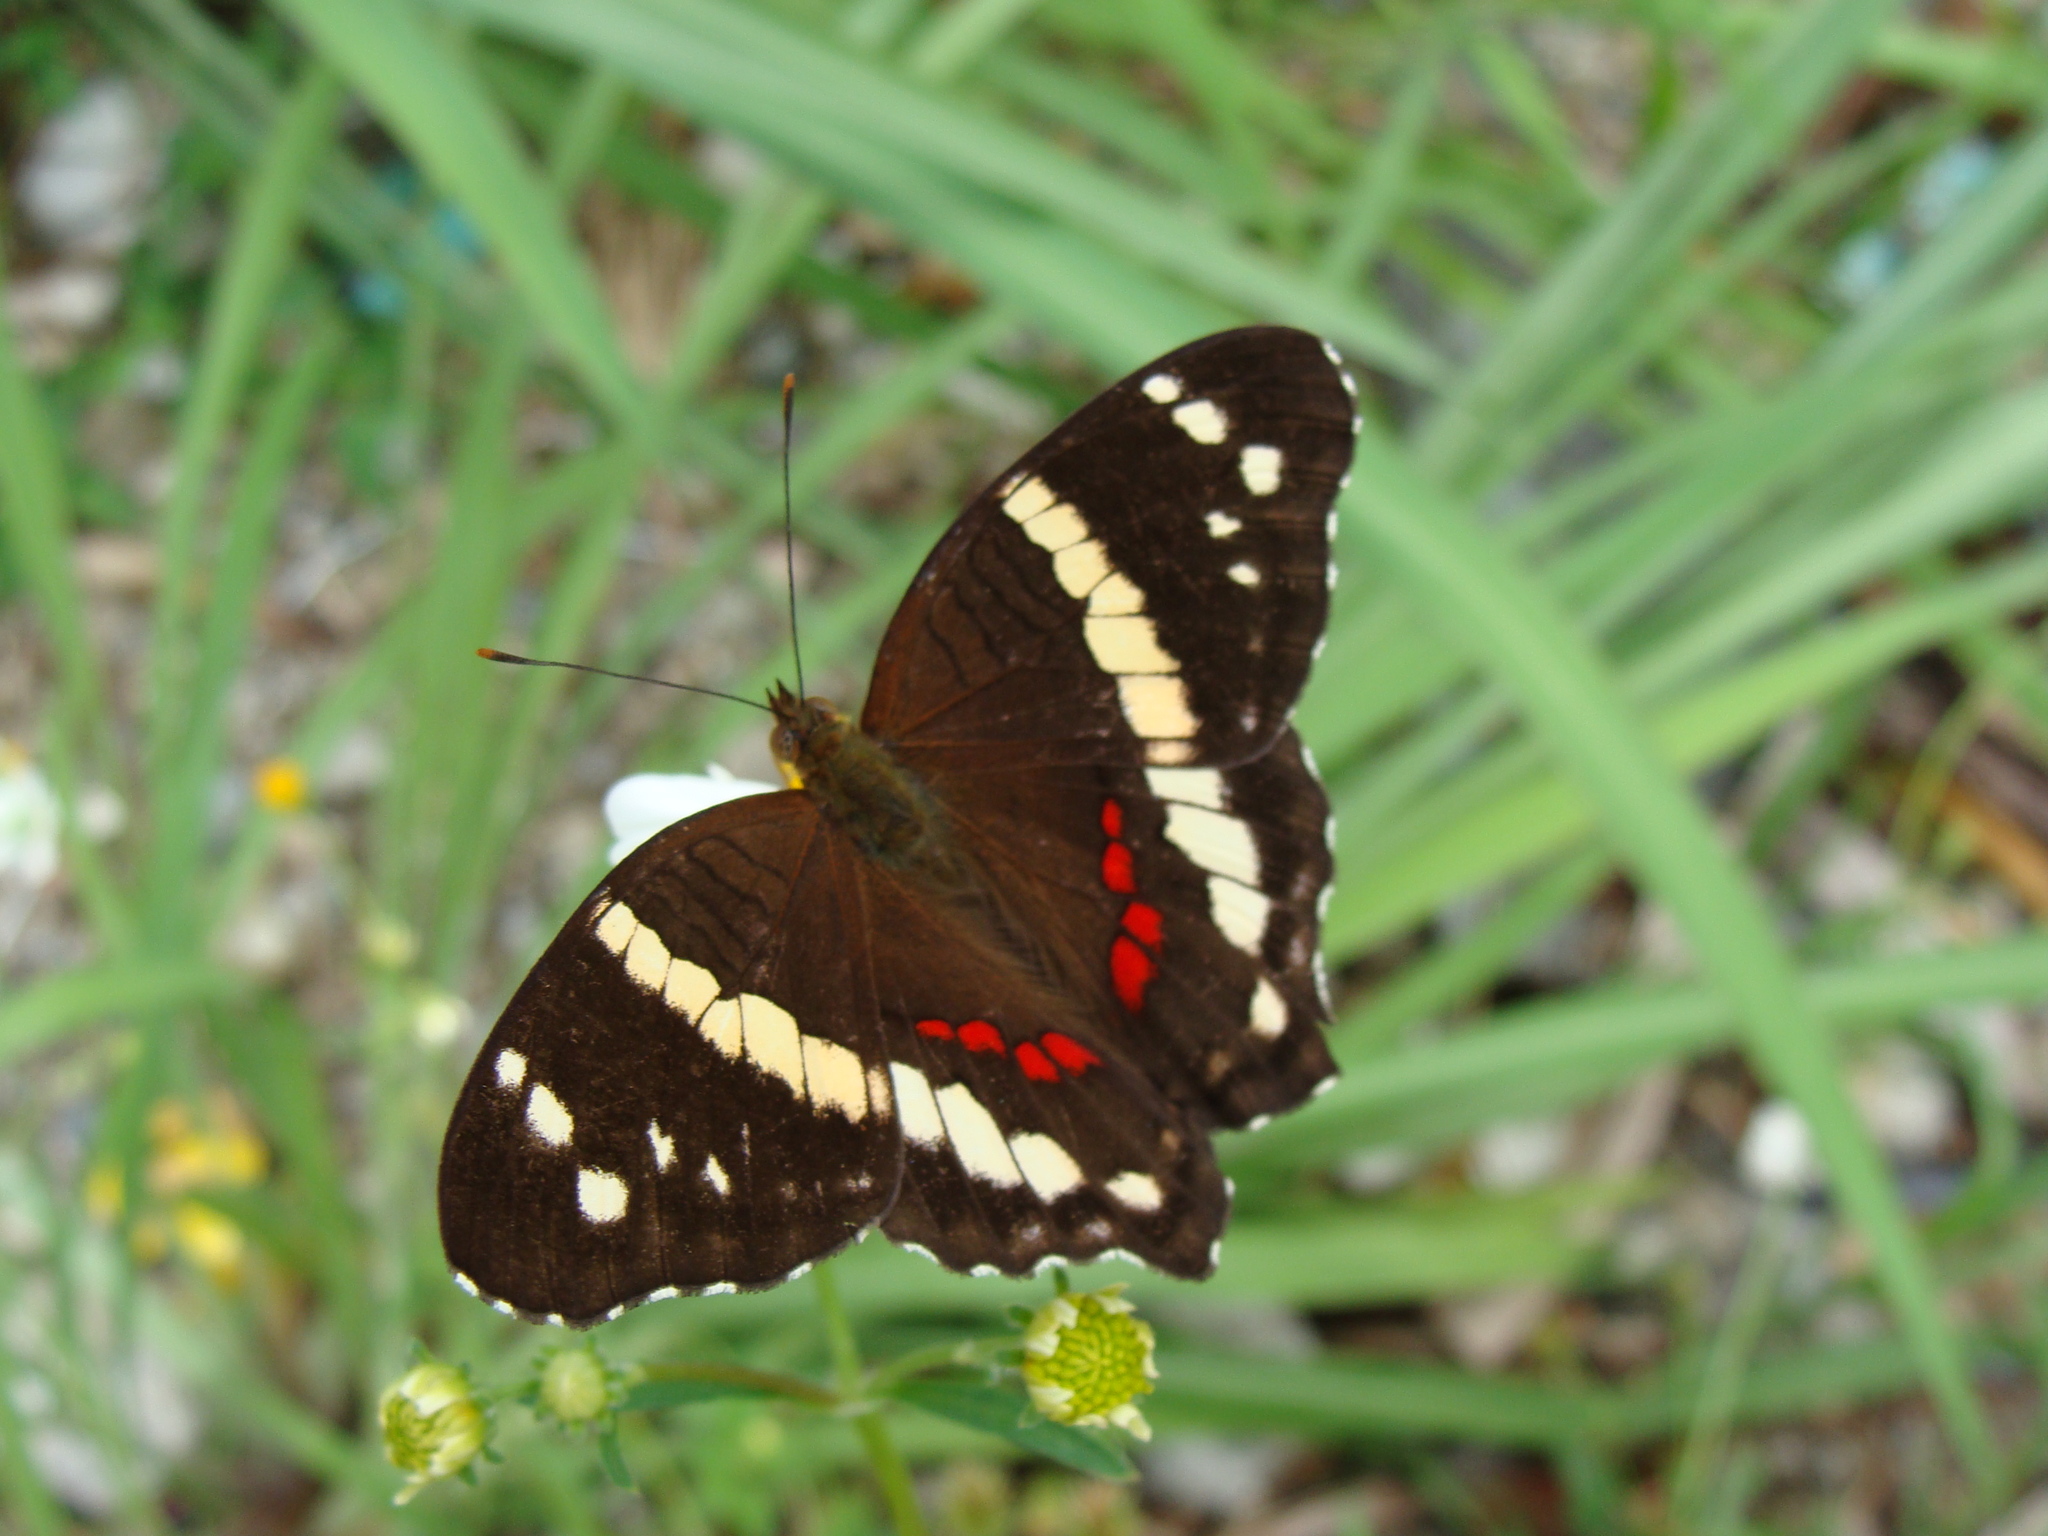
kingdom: Animalia
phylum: Arthropoda
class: Insecta
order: Lepidoptera
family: Nymphalidae
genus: Anartia
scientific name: Anartia fatima
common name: Banded peacock
